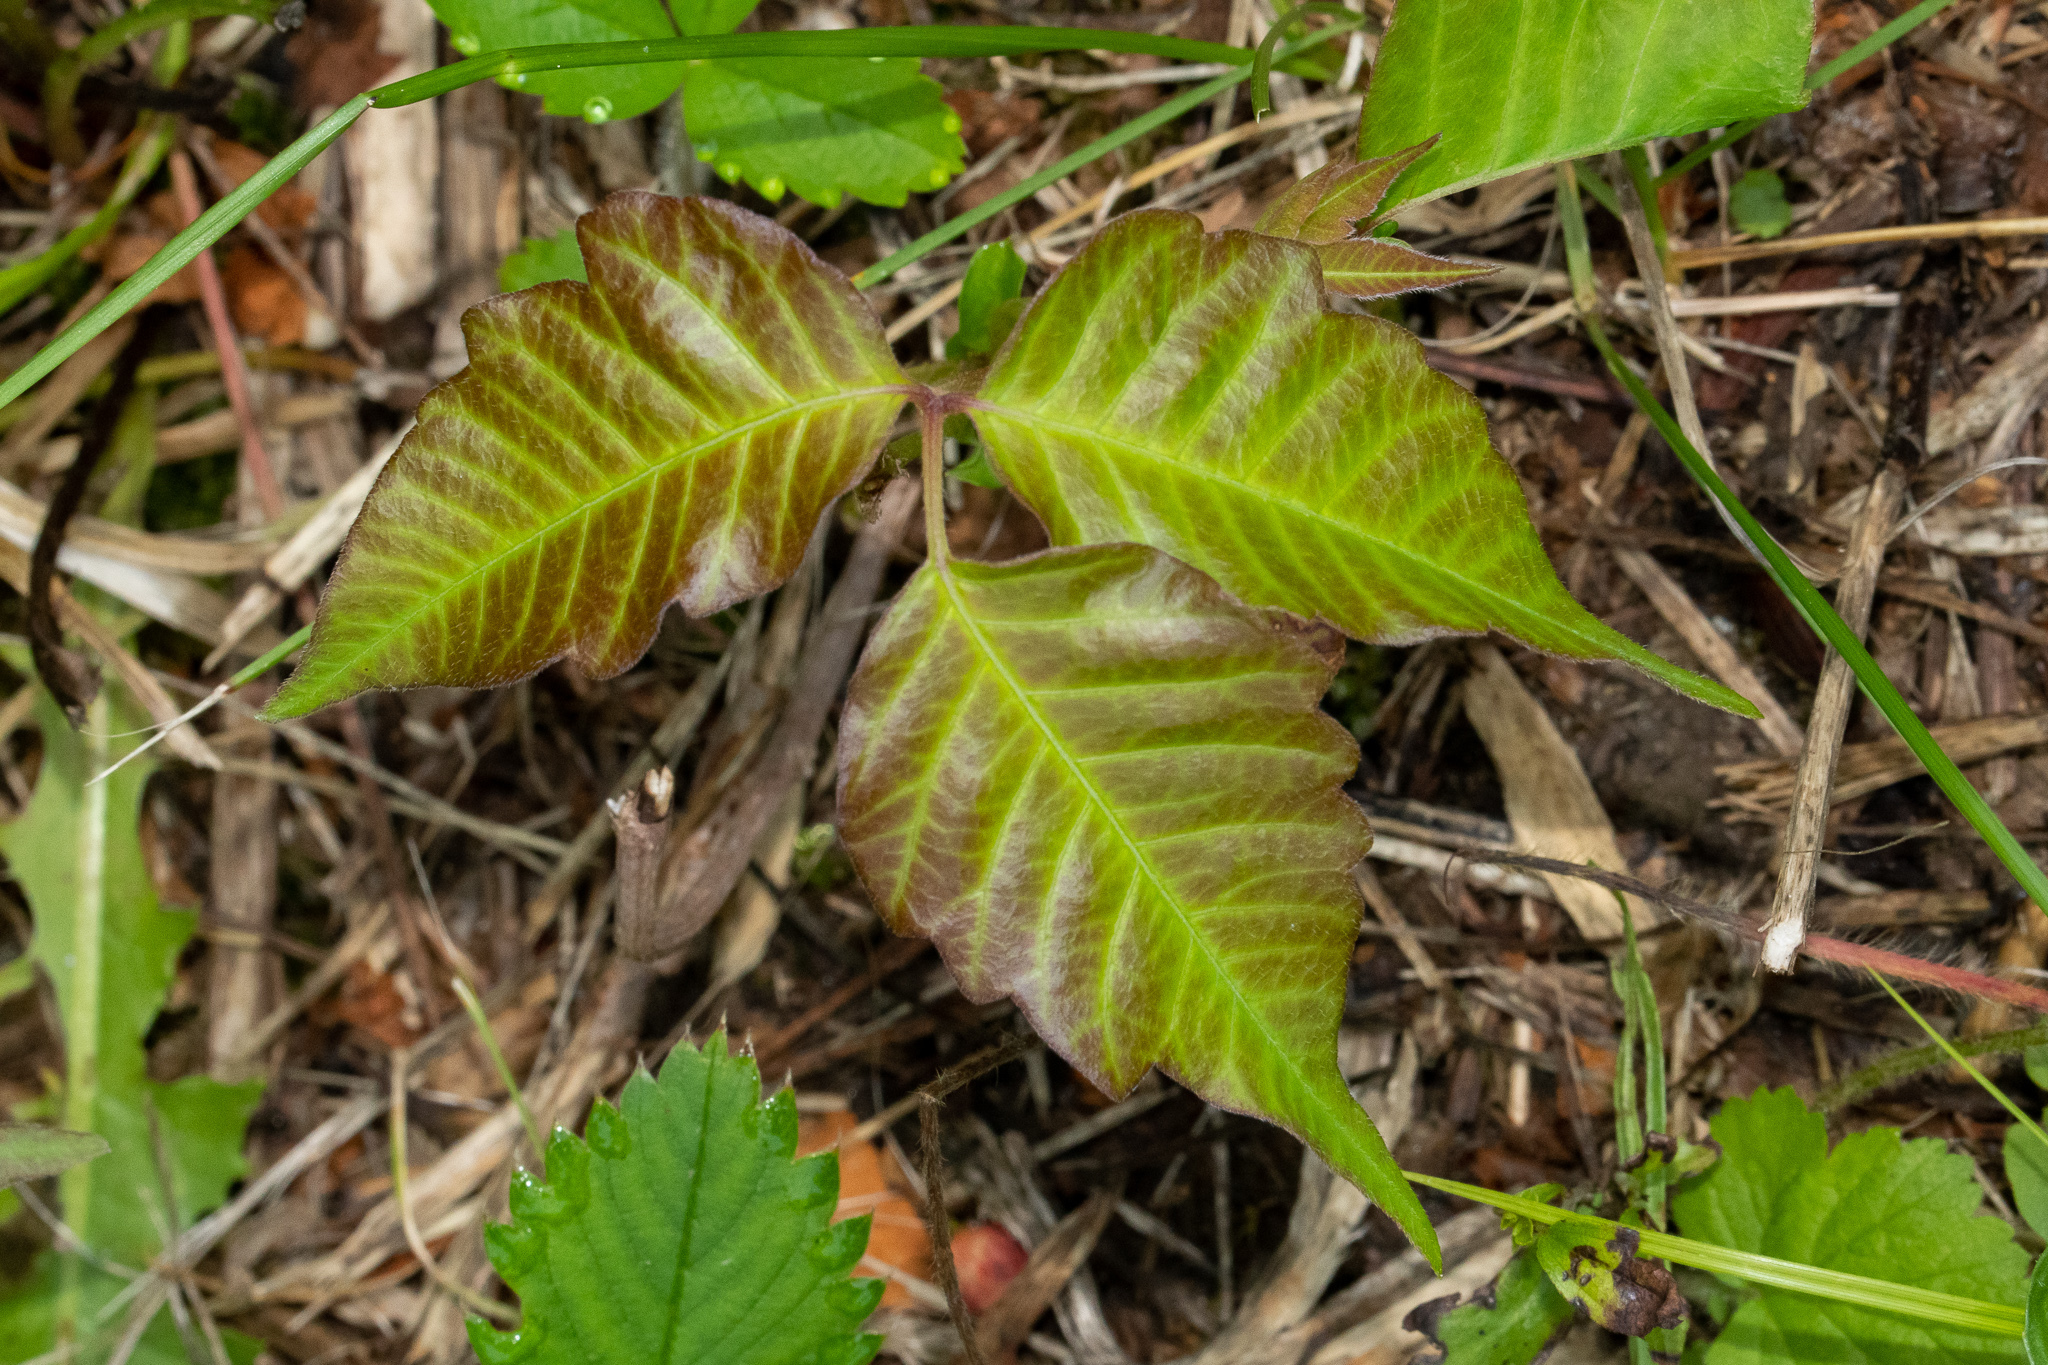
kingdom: Plantae
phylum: Tracheophyta
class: Magnoliopsida
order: Sapindales
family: Anacardiaceae
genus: Toxicodendron
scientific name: Toxicodendron radicans
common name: Poison ivy
